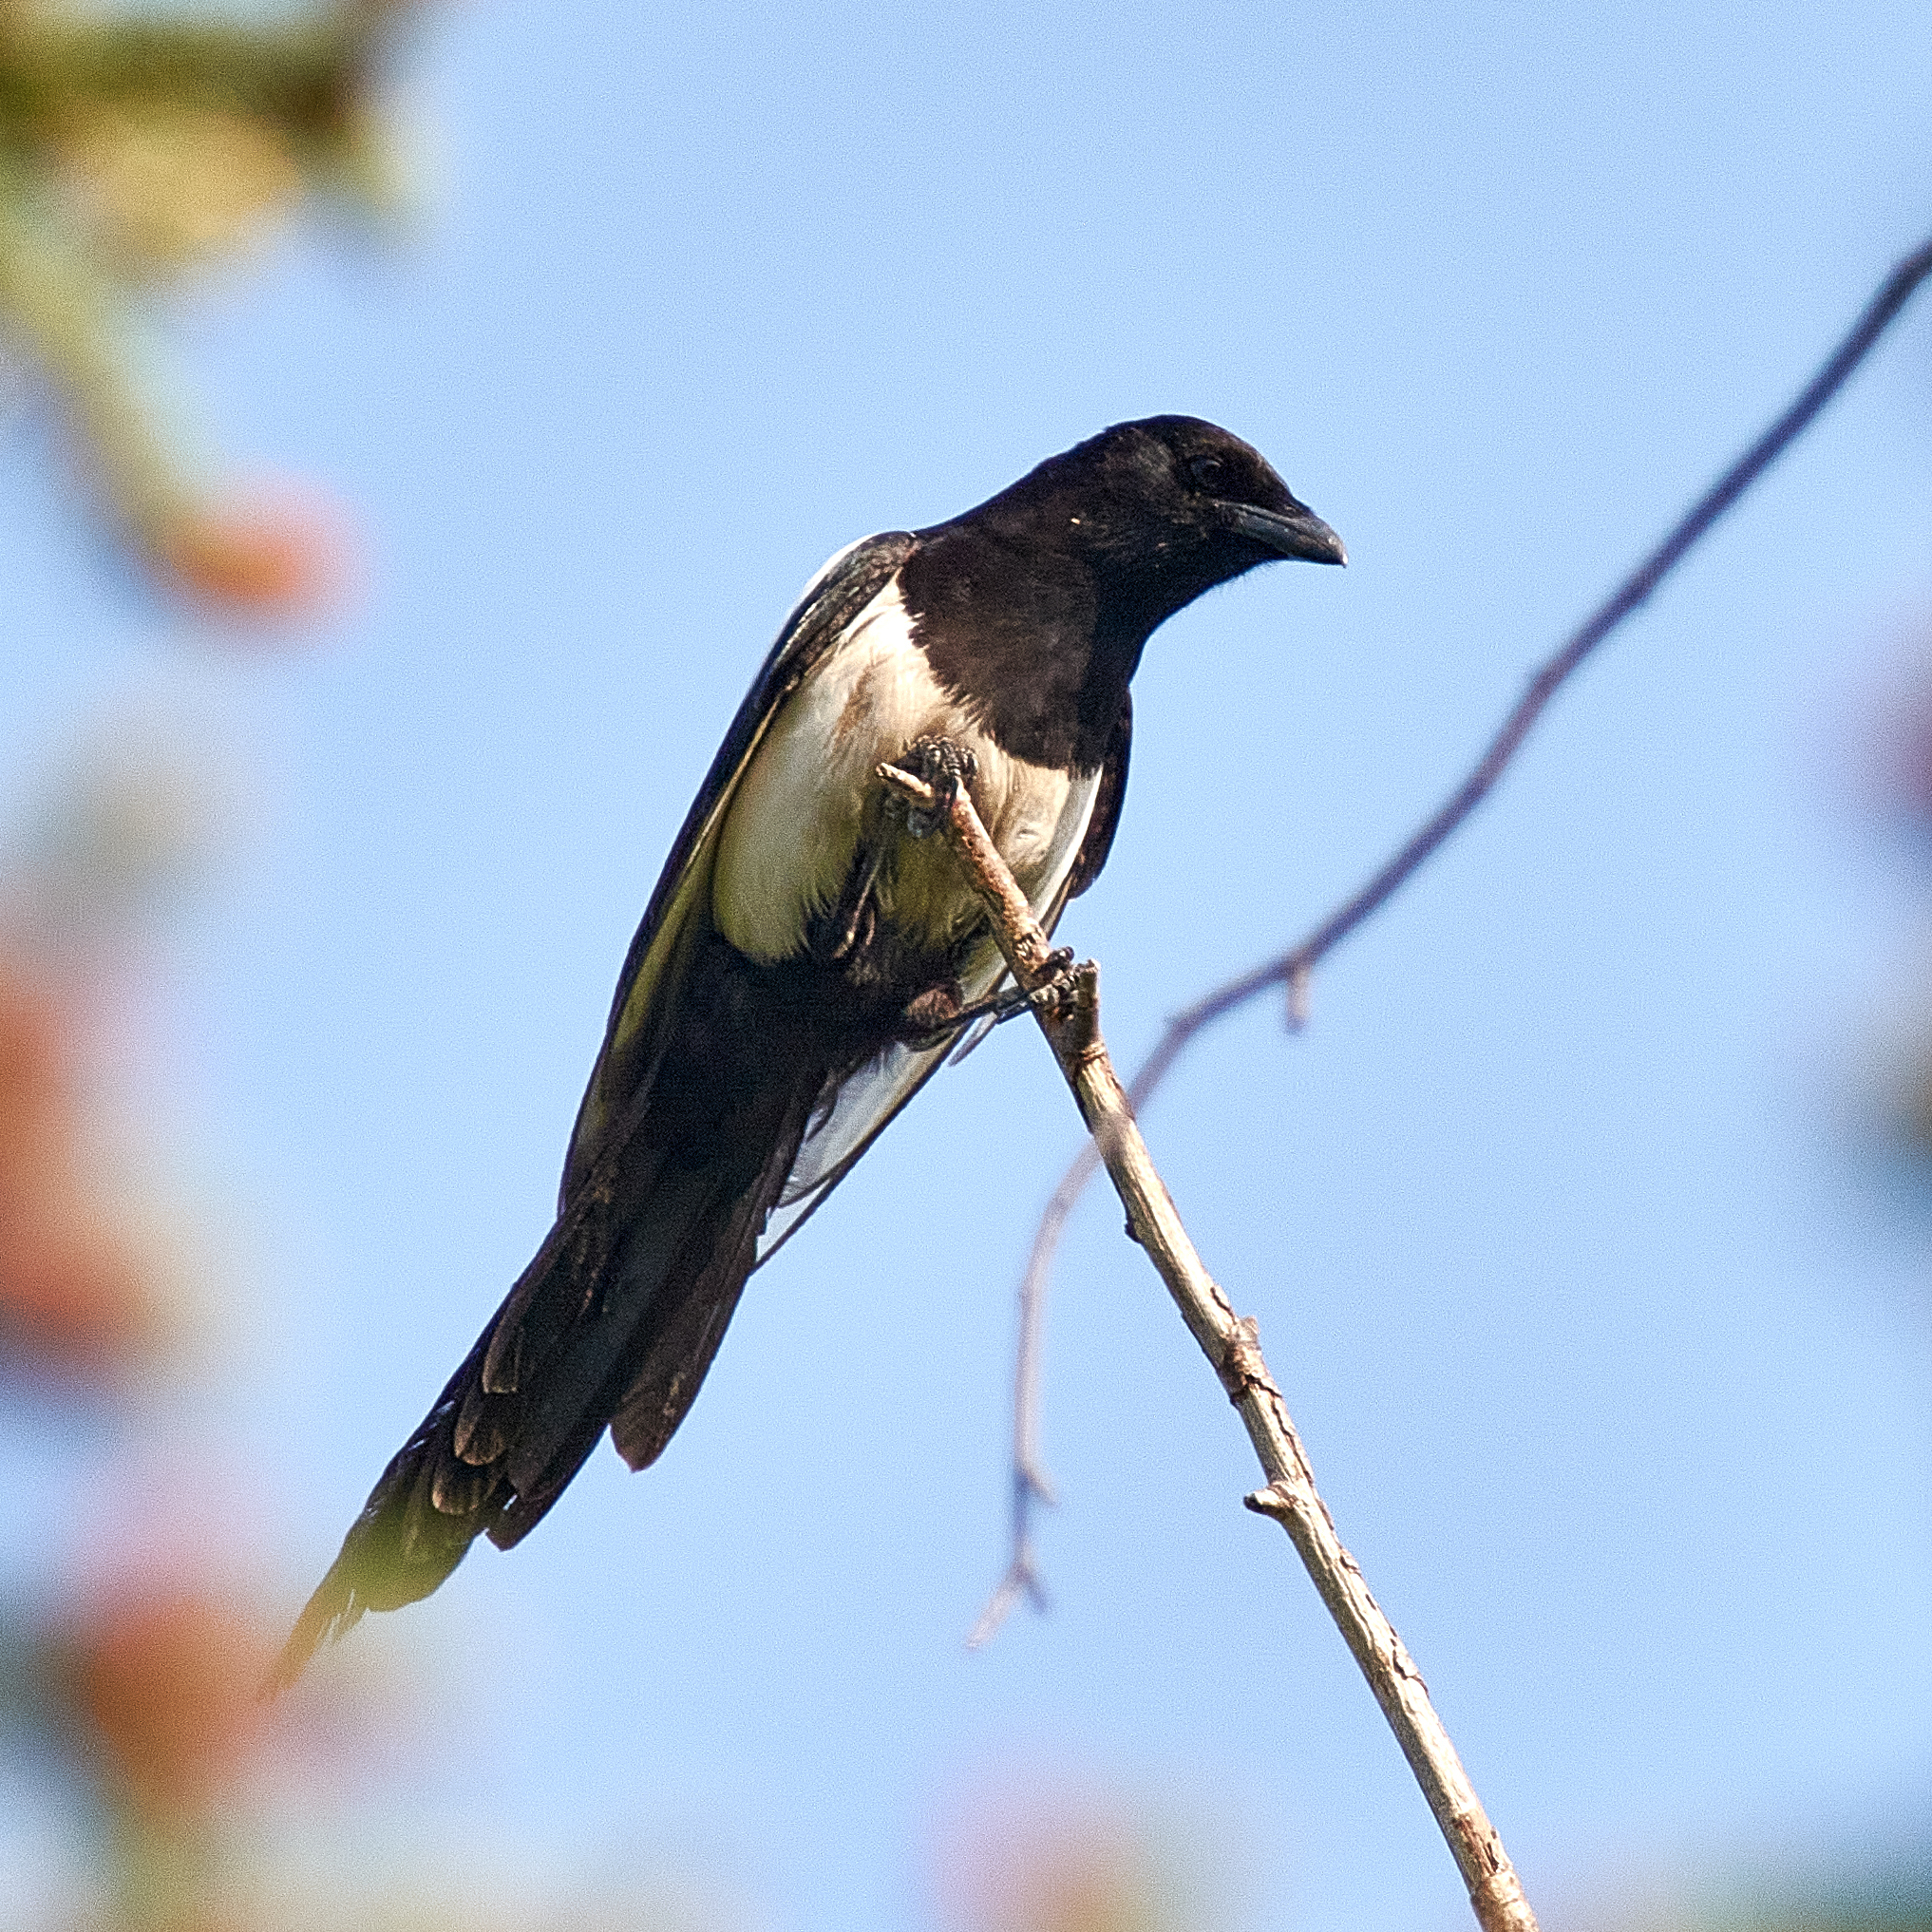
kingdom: Animalia
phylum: Chordata
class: Aves
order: Passeriformes
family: Corvidae
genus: Pica
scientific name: Pica pica
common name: Eurasian magpie
